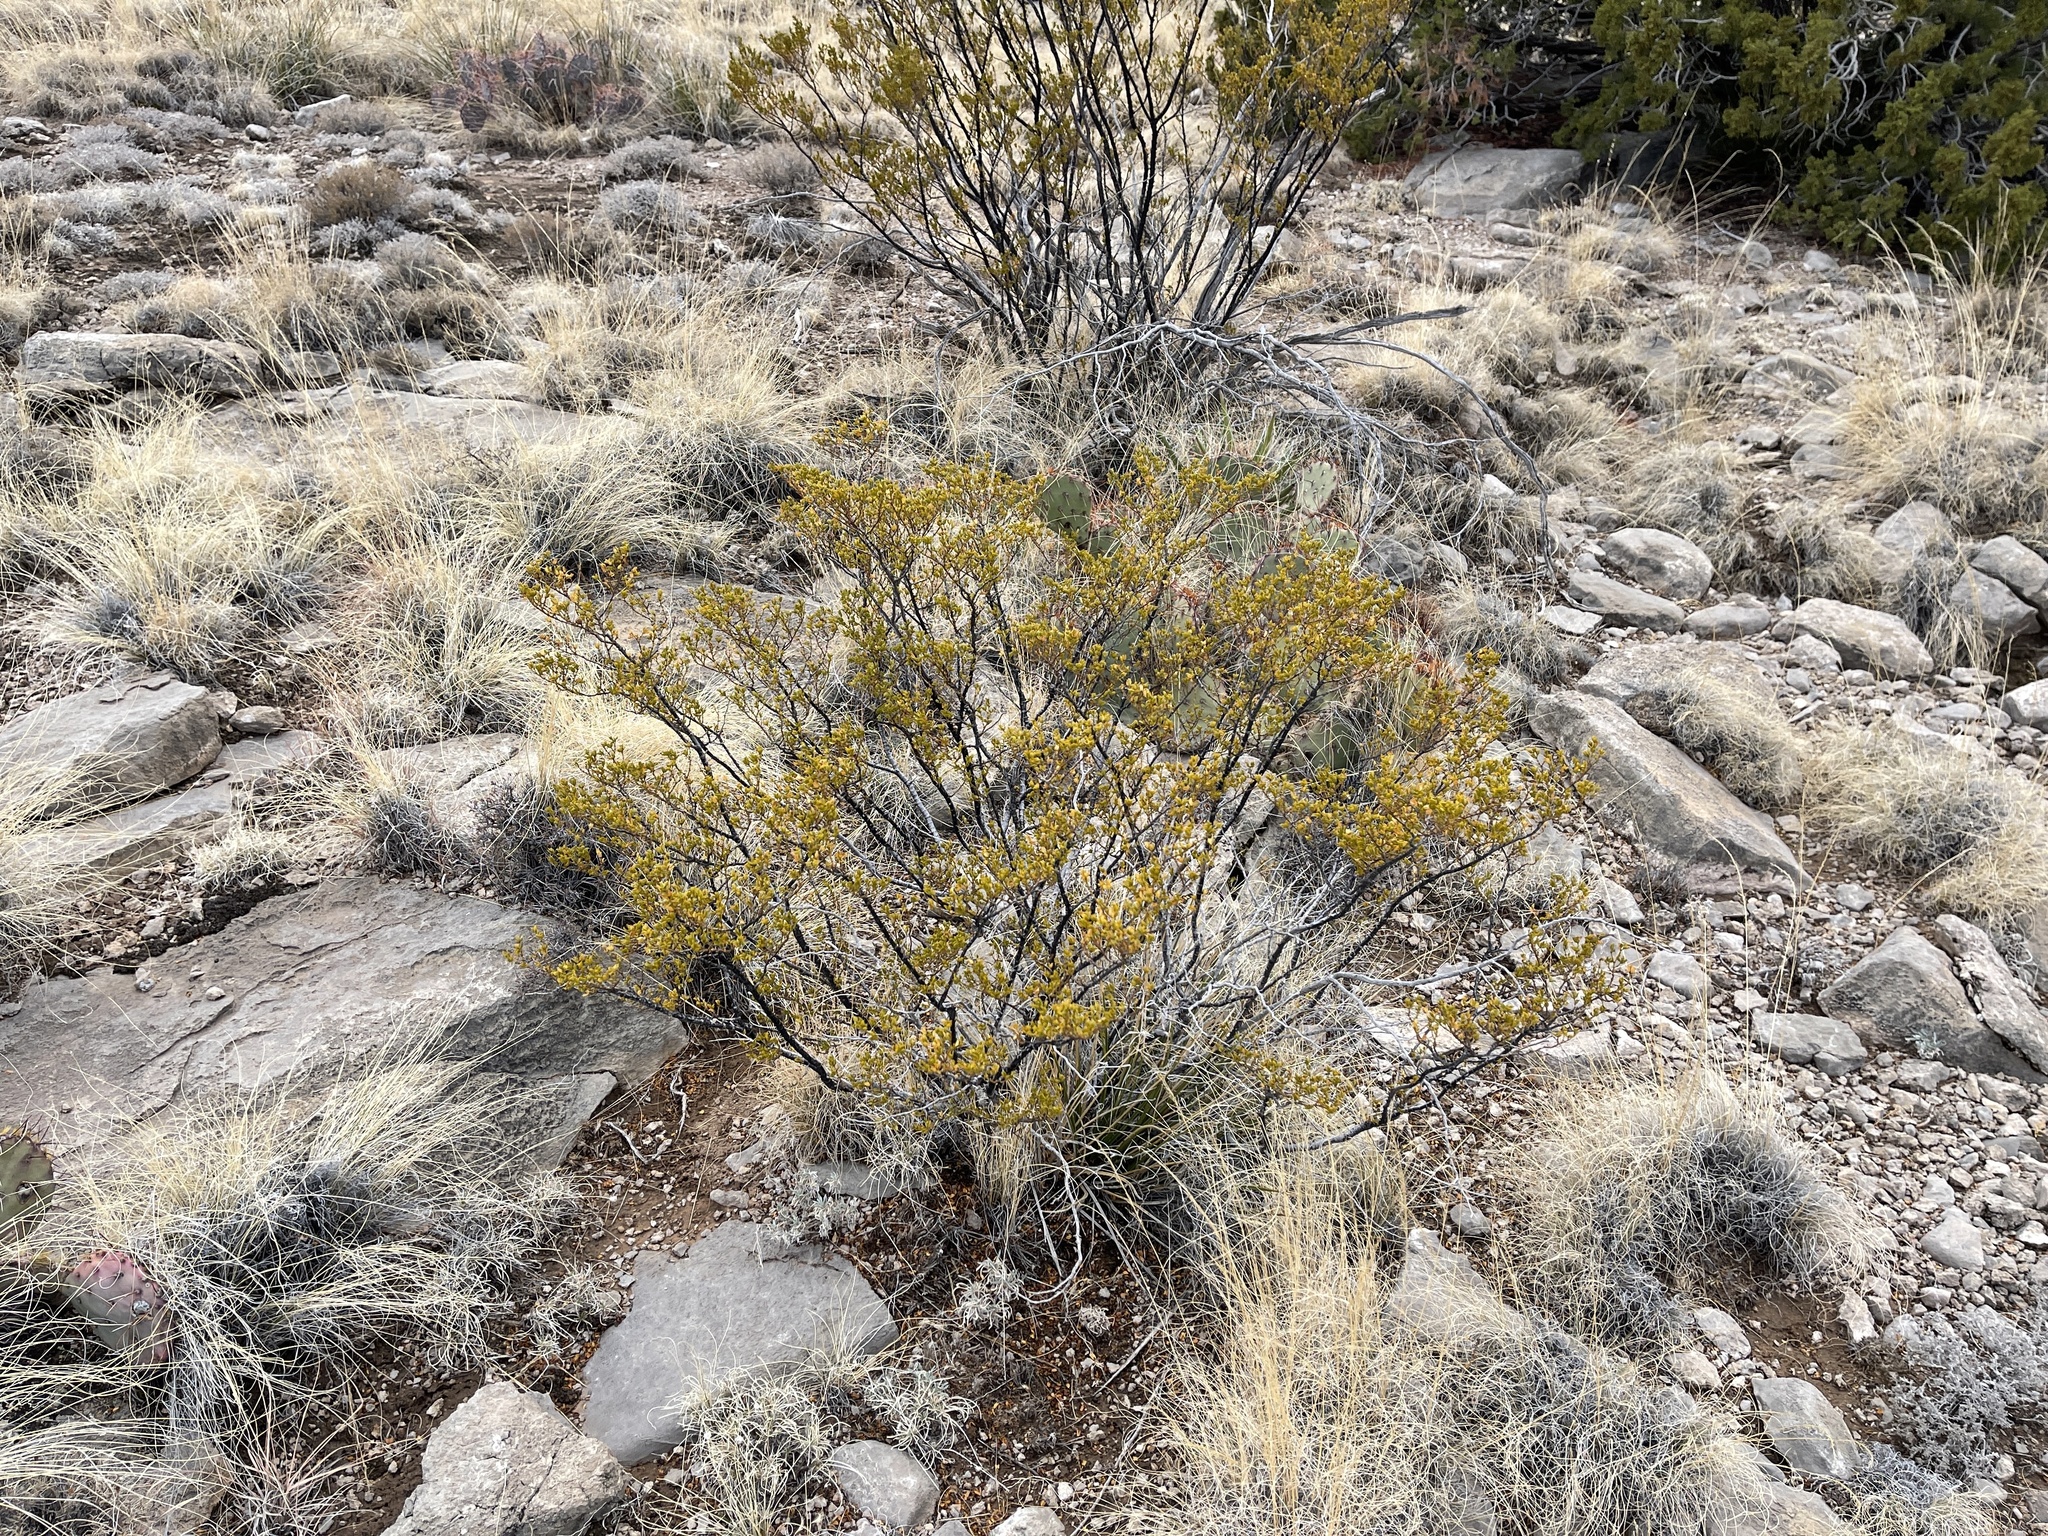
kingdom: Plantae
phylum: Tracheophyta
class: Magnoliopsida
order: Zygophyllales
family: Zygophyllaceae
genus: Larrea
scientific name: Larrea tridentata
